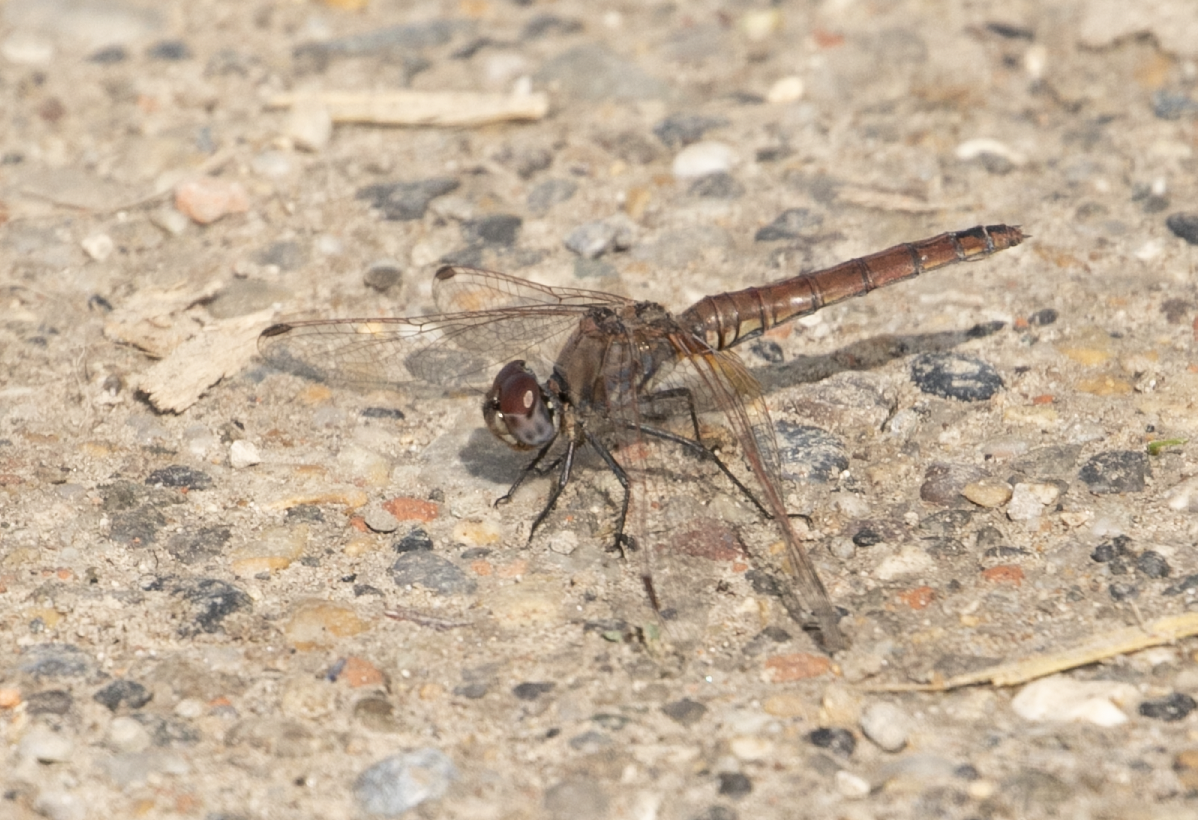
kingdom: Animalia
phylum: Arthropoda
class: Insecta
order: Odonata
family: Libellulidae
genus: Trithemis
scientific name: Trithemis annulata
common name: Violet dropwing
